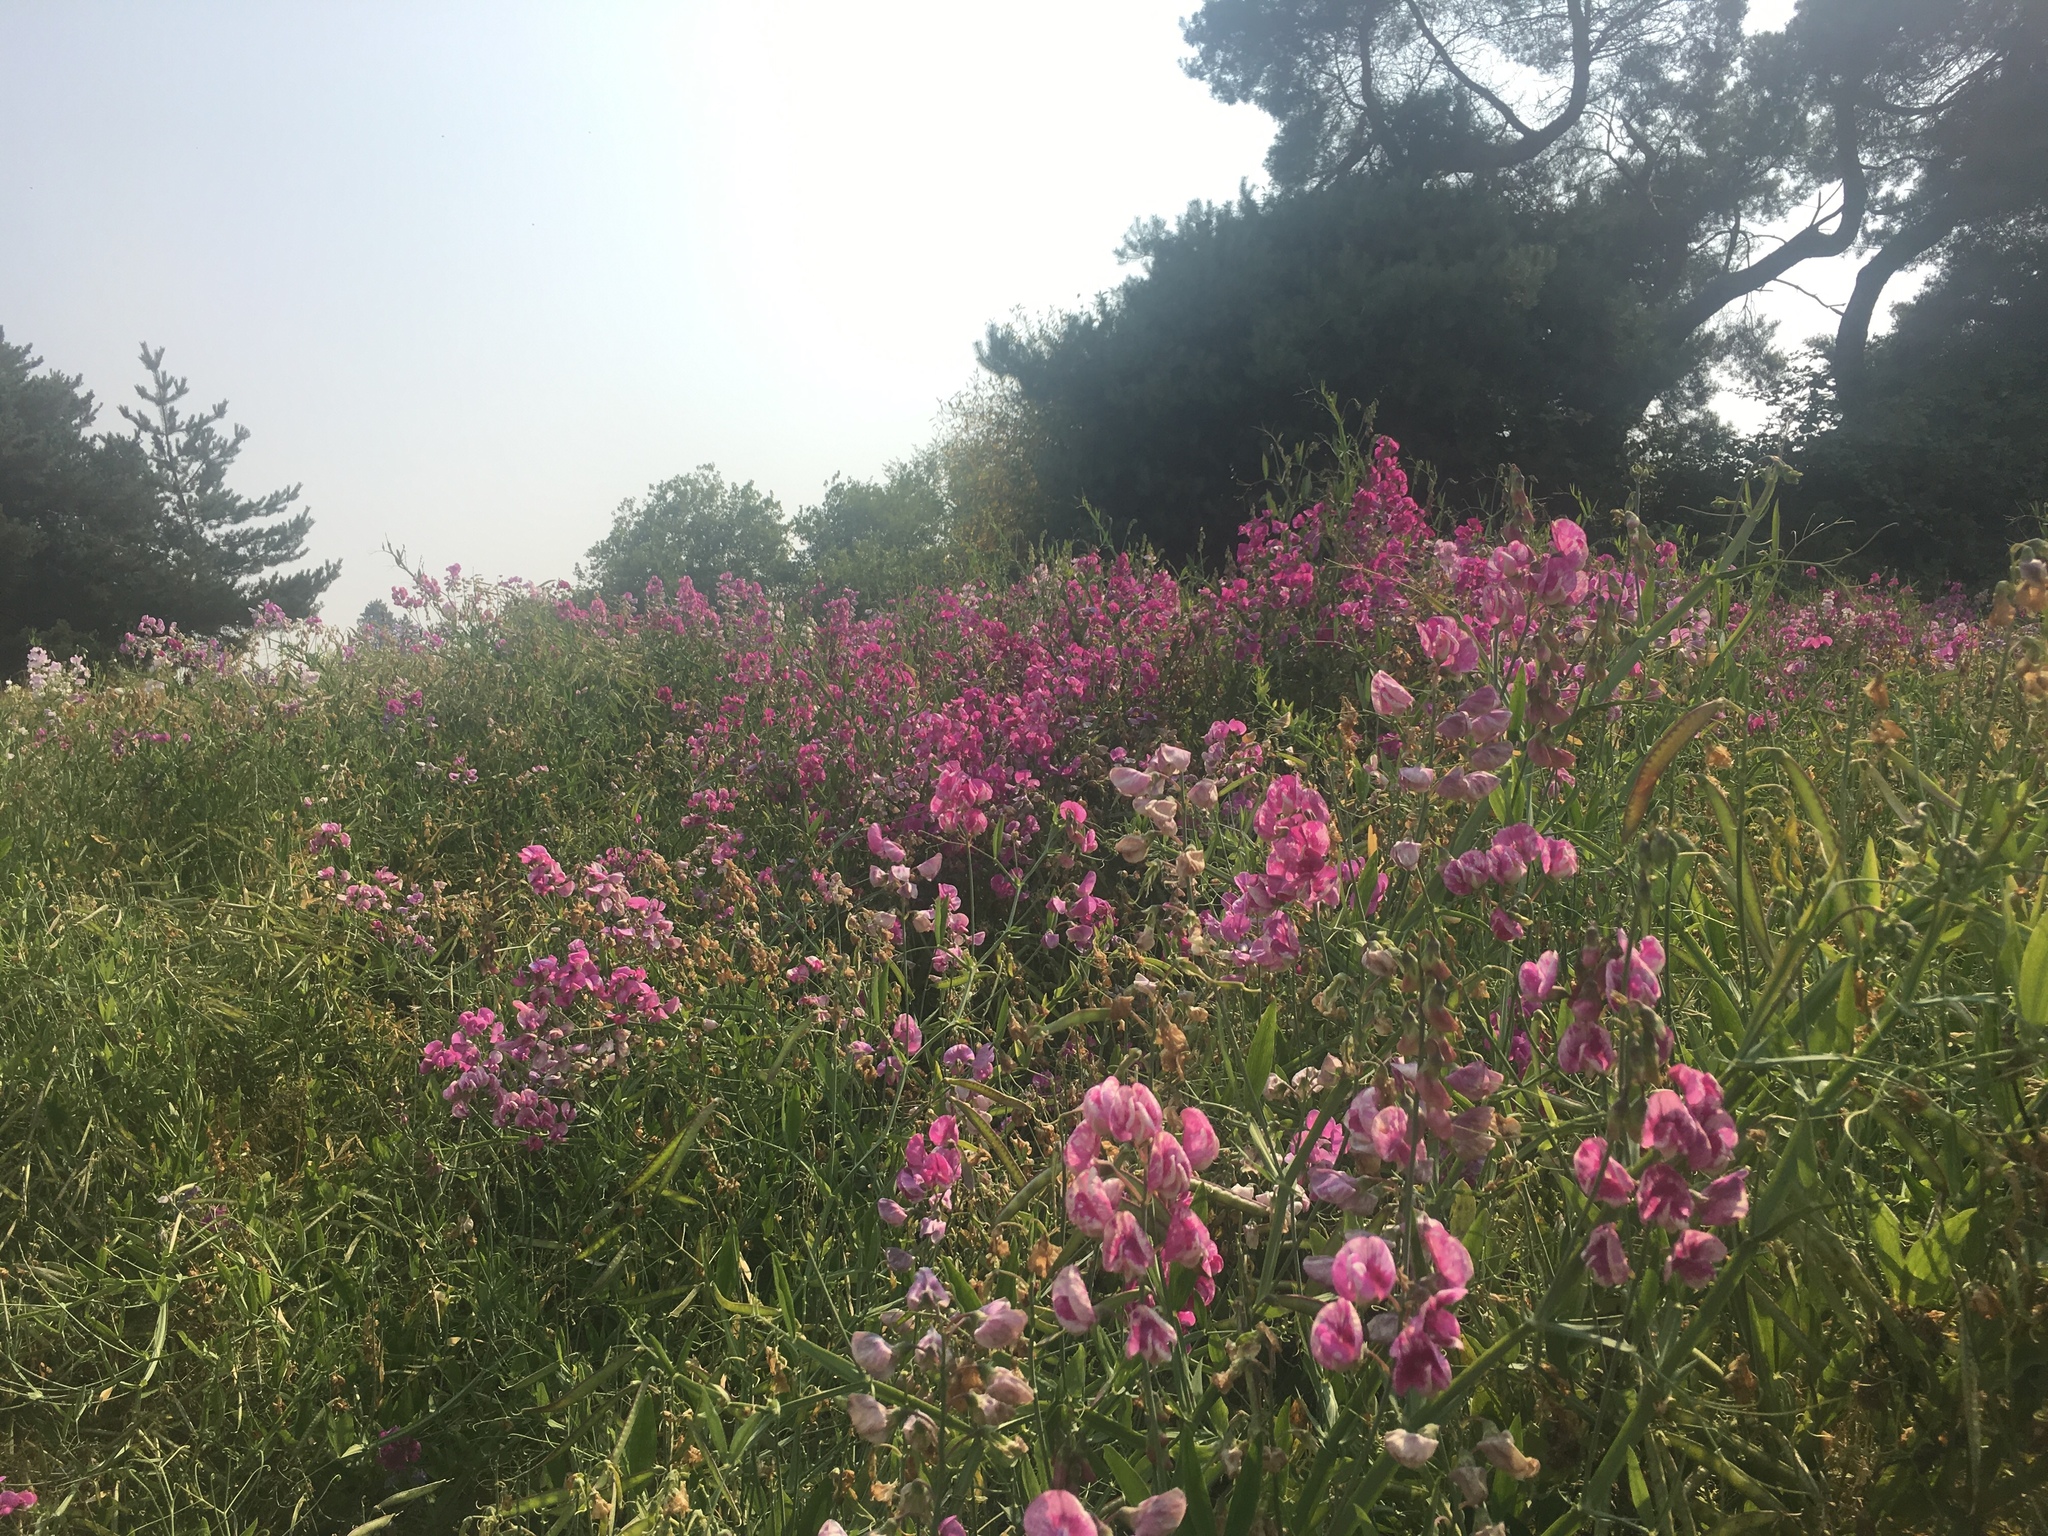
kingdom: Plantae
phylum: Tracheophyta
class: Magnoliopsida
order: Fabales
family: Fabaceae
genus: Lathyrus
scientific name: Lathyrus latifolius
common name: Perennial pea
